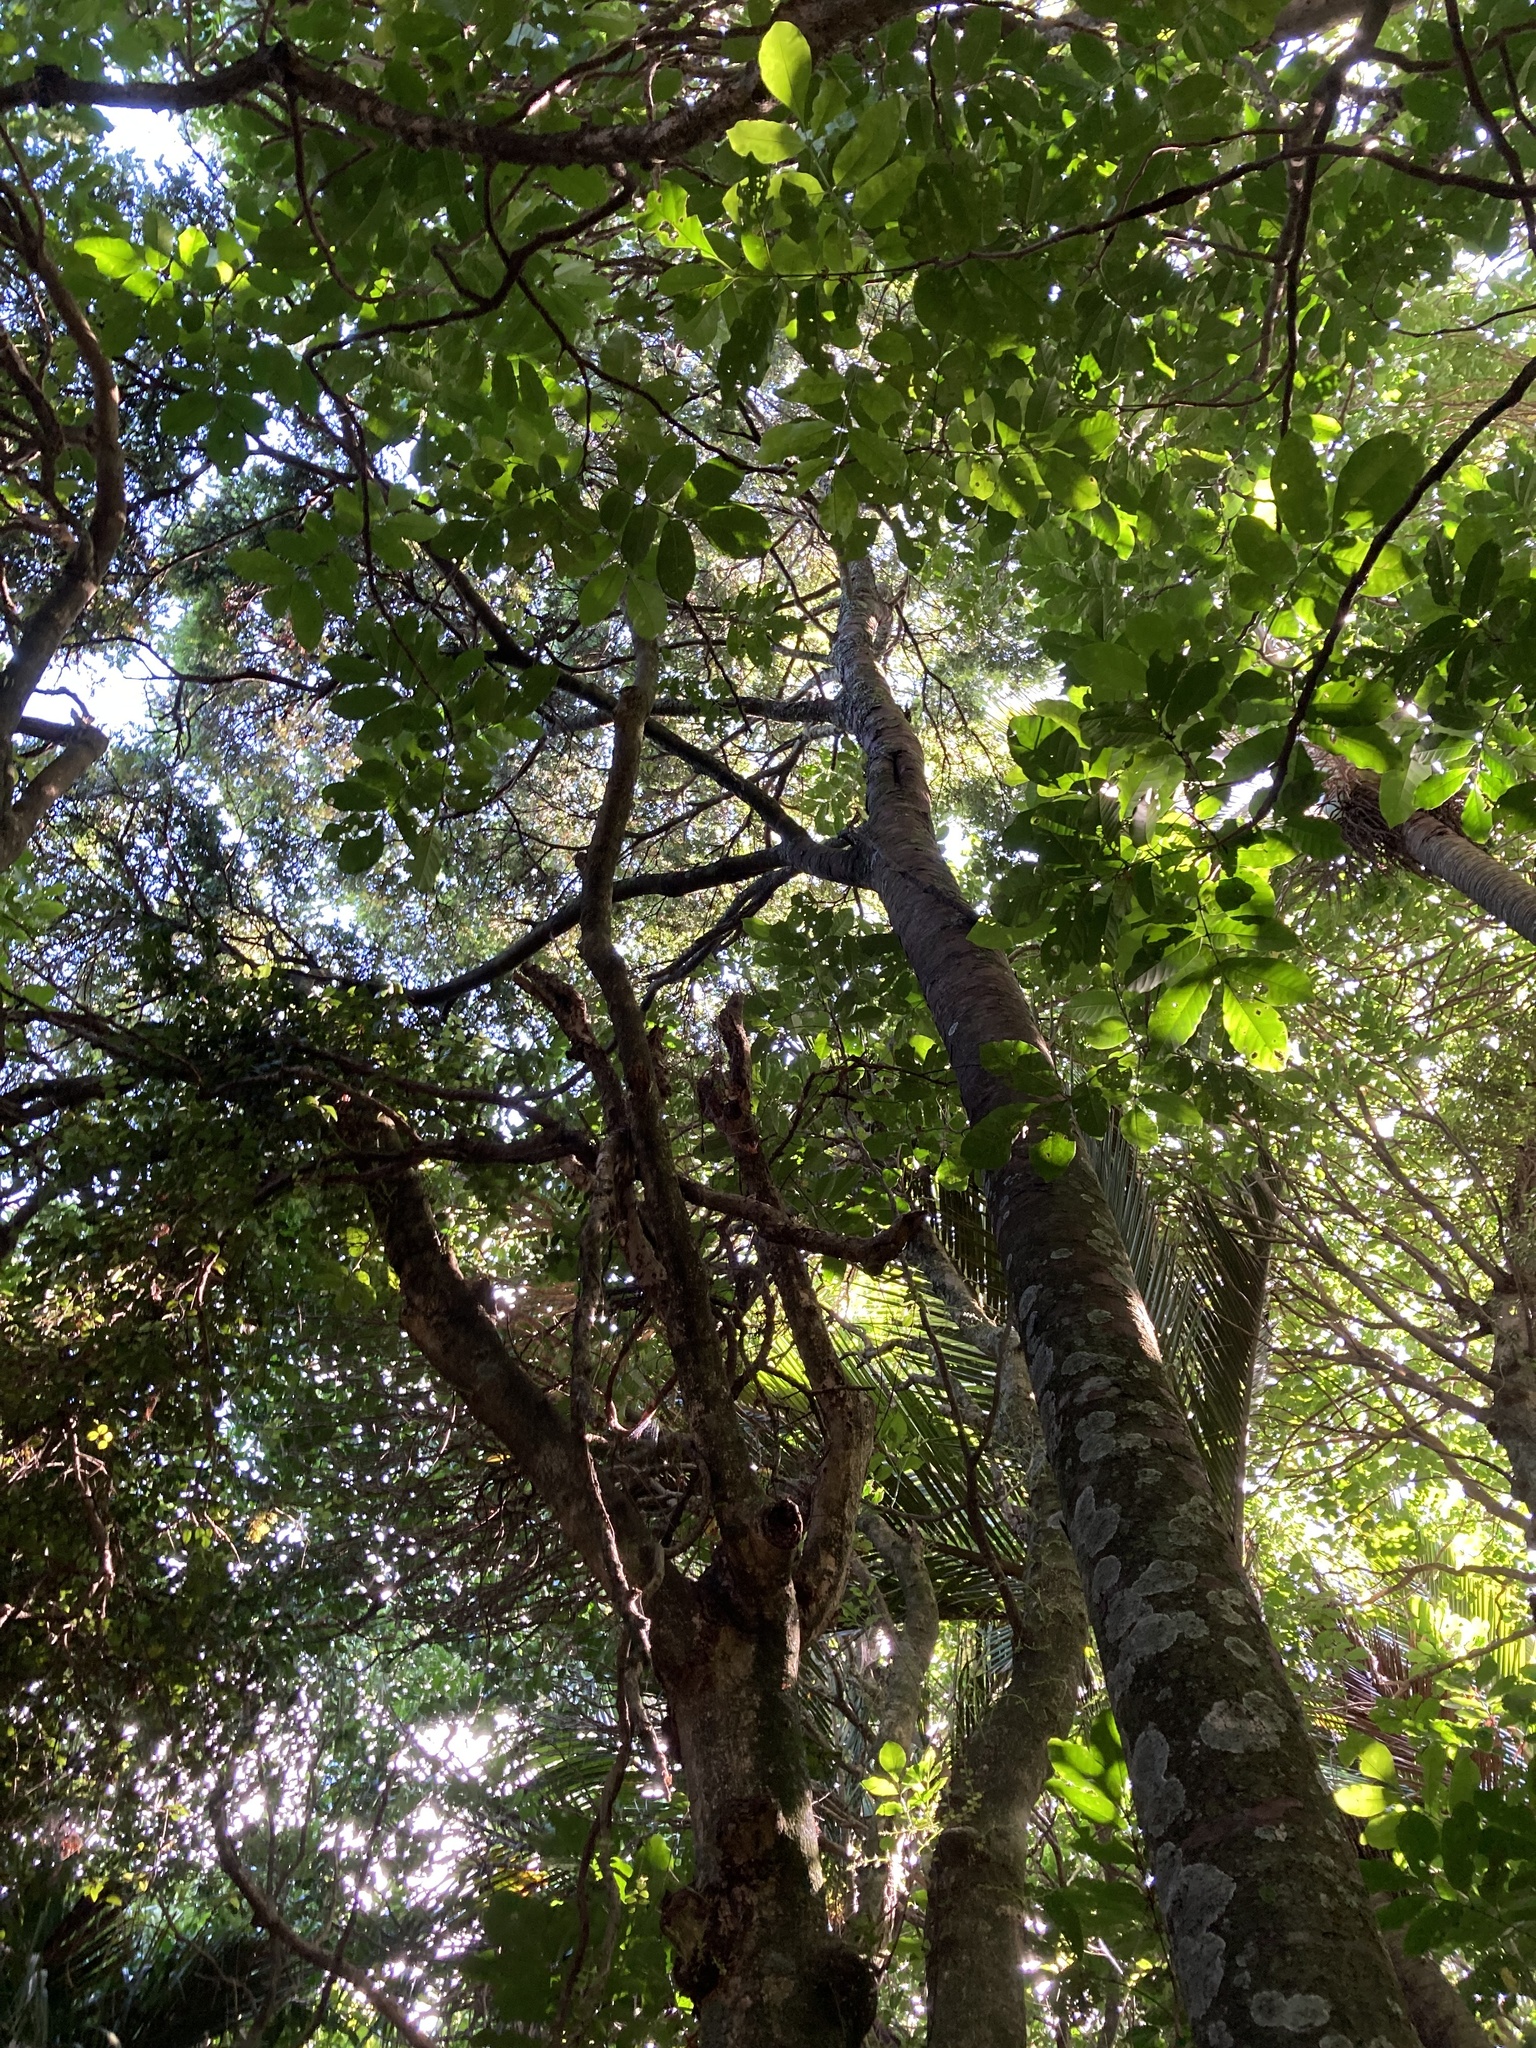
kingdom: Plantae
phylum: Tracheophyta
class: Pinopsida
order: Pinales
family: Podocarpaceae
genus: Prumnopitys
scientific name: Prumnopitys taxifolia
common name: Matai
